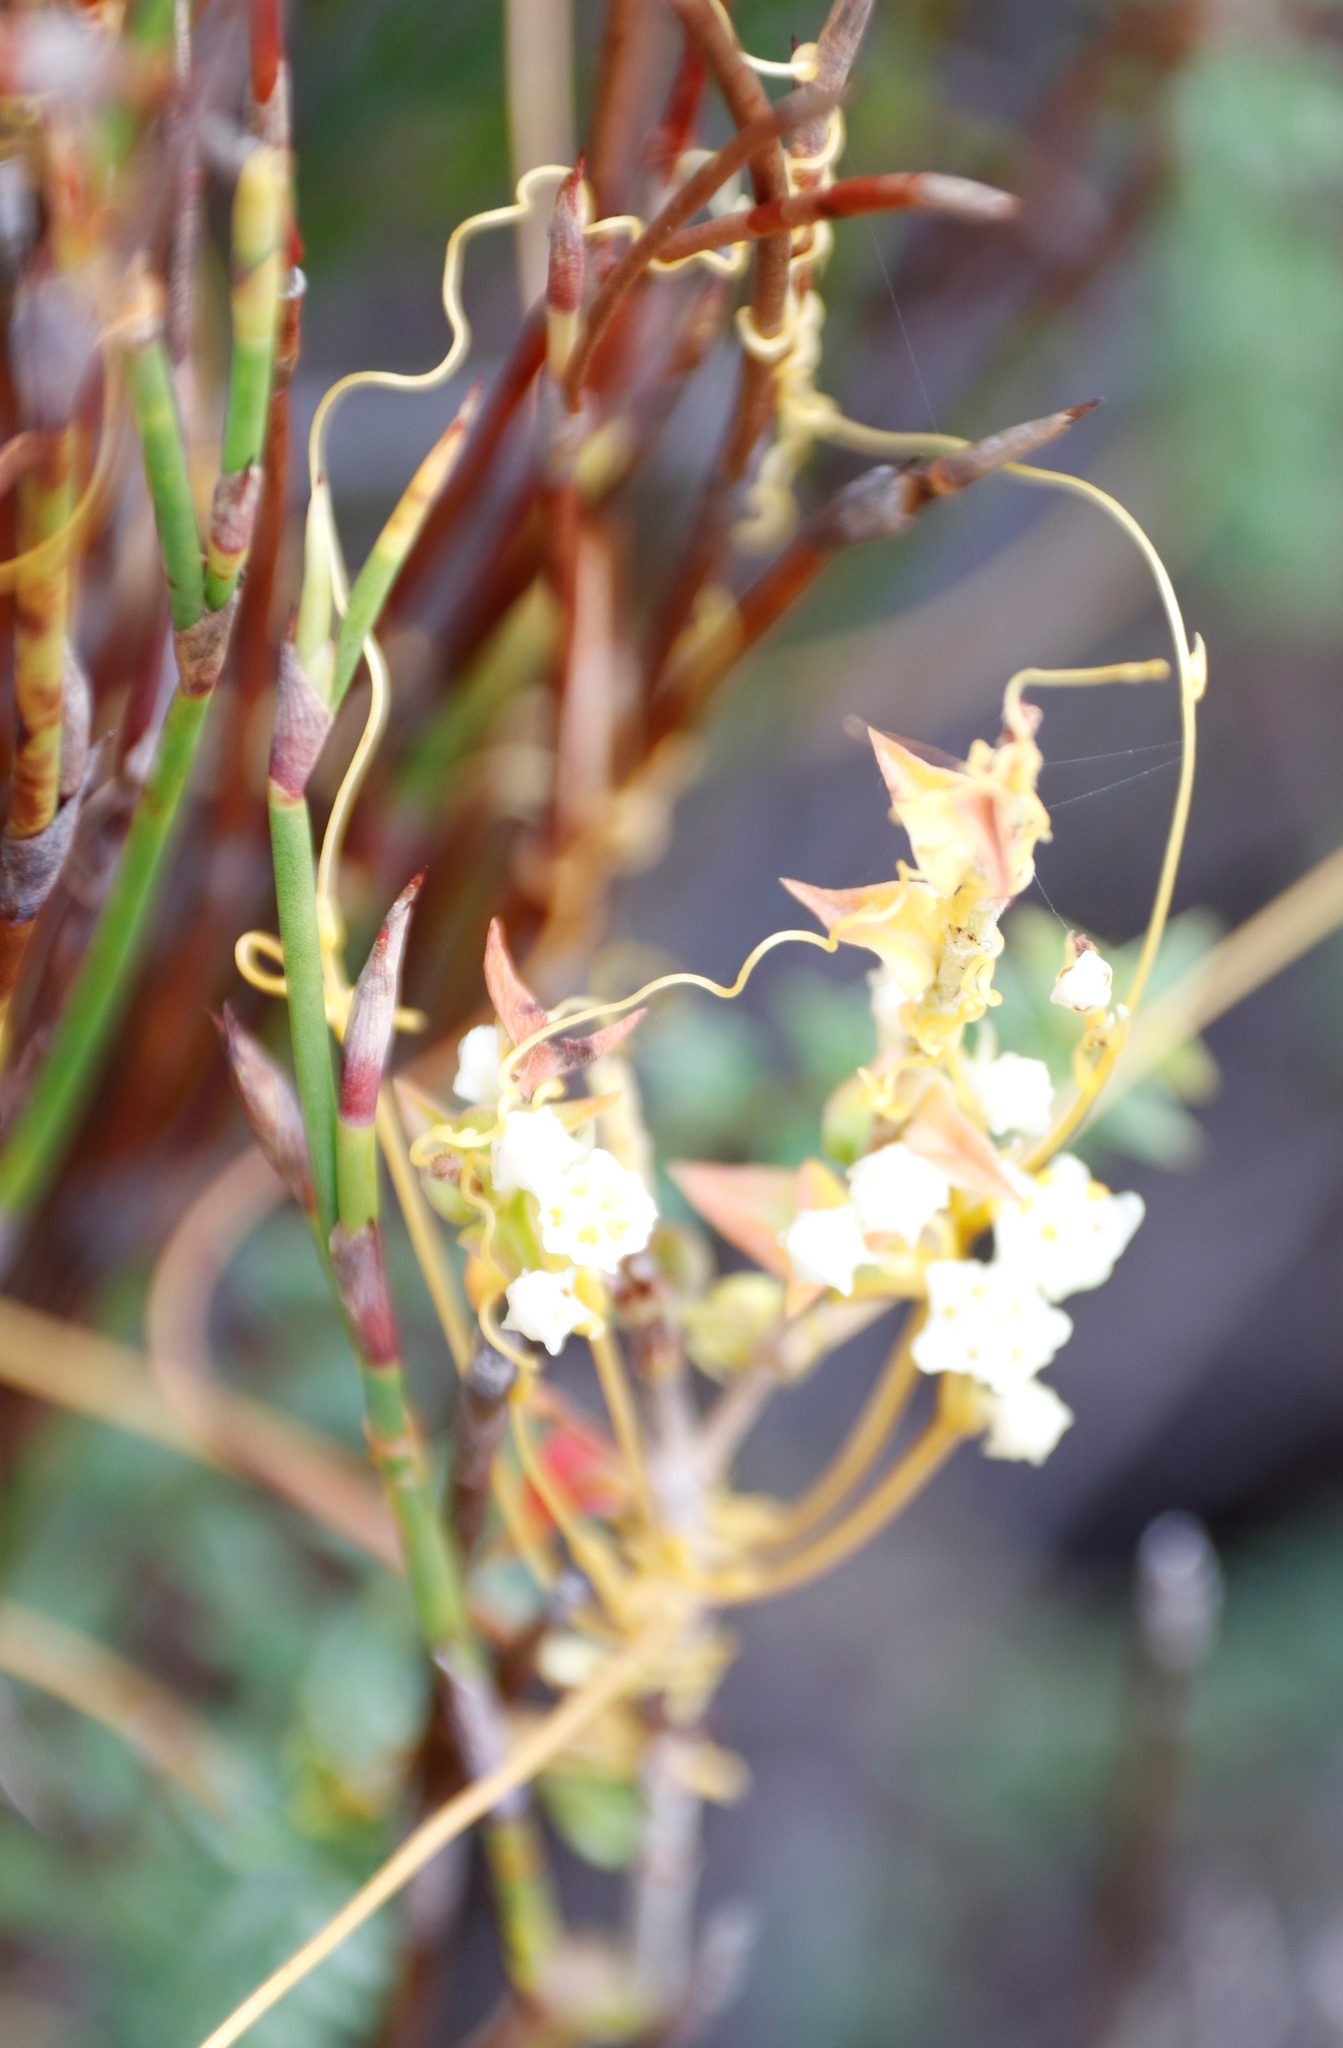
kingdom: Plantae
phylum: Tracheophyta
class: Magnoliopsida
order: Solanales
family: Convolvulaceae
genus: Cuscuta
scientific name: Cuscuta angulata
